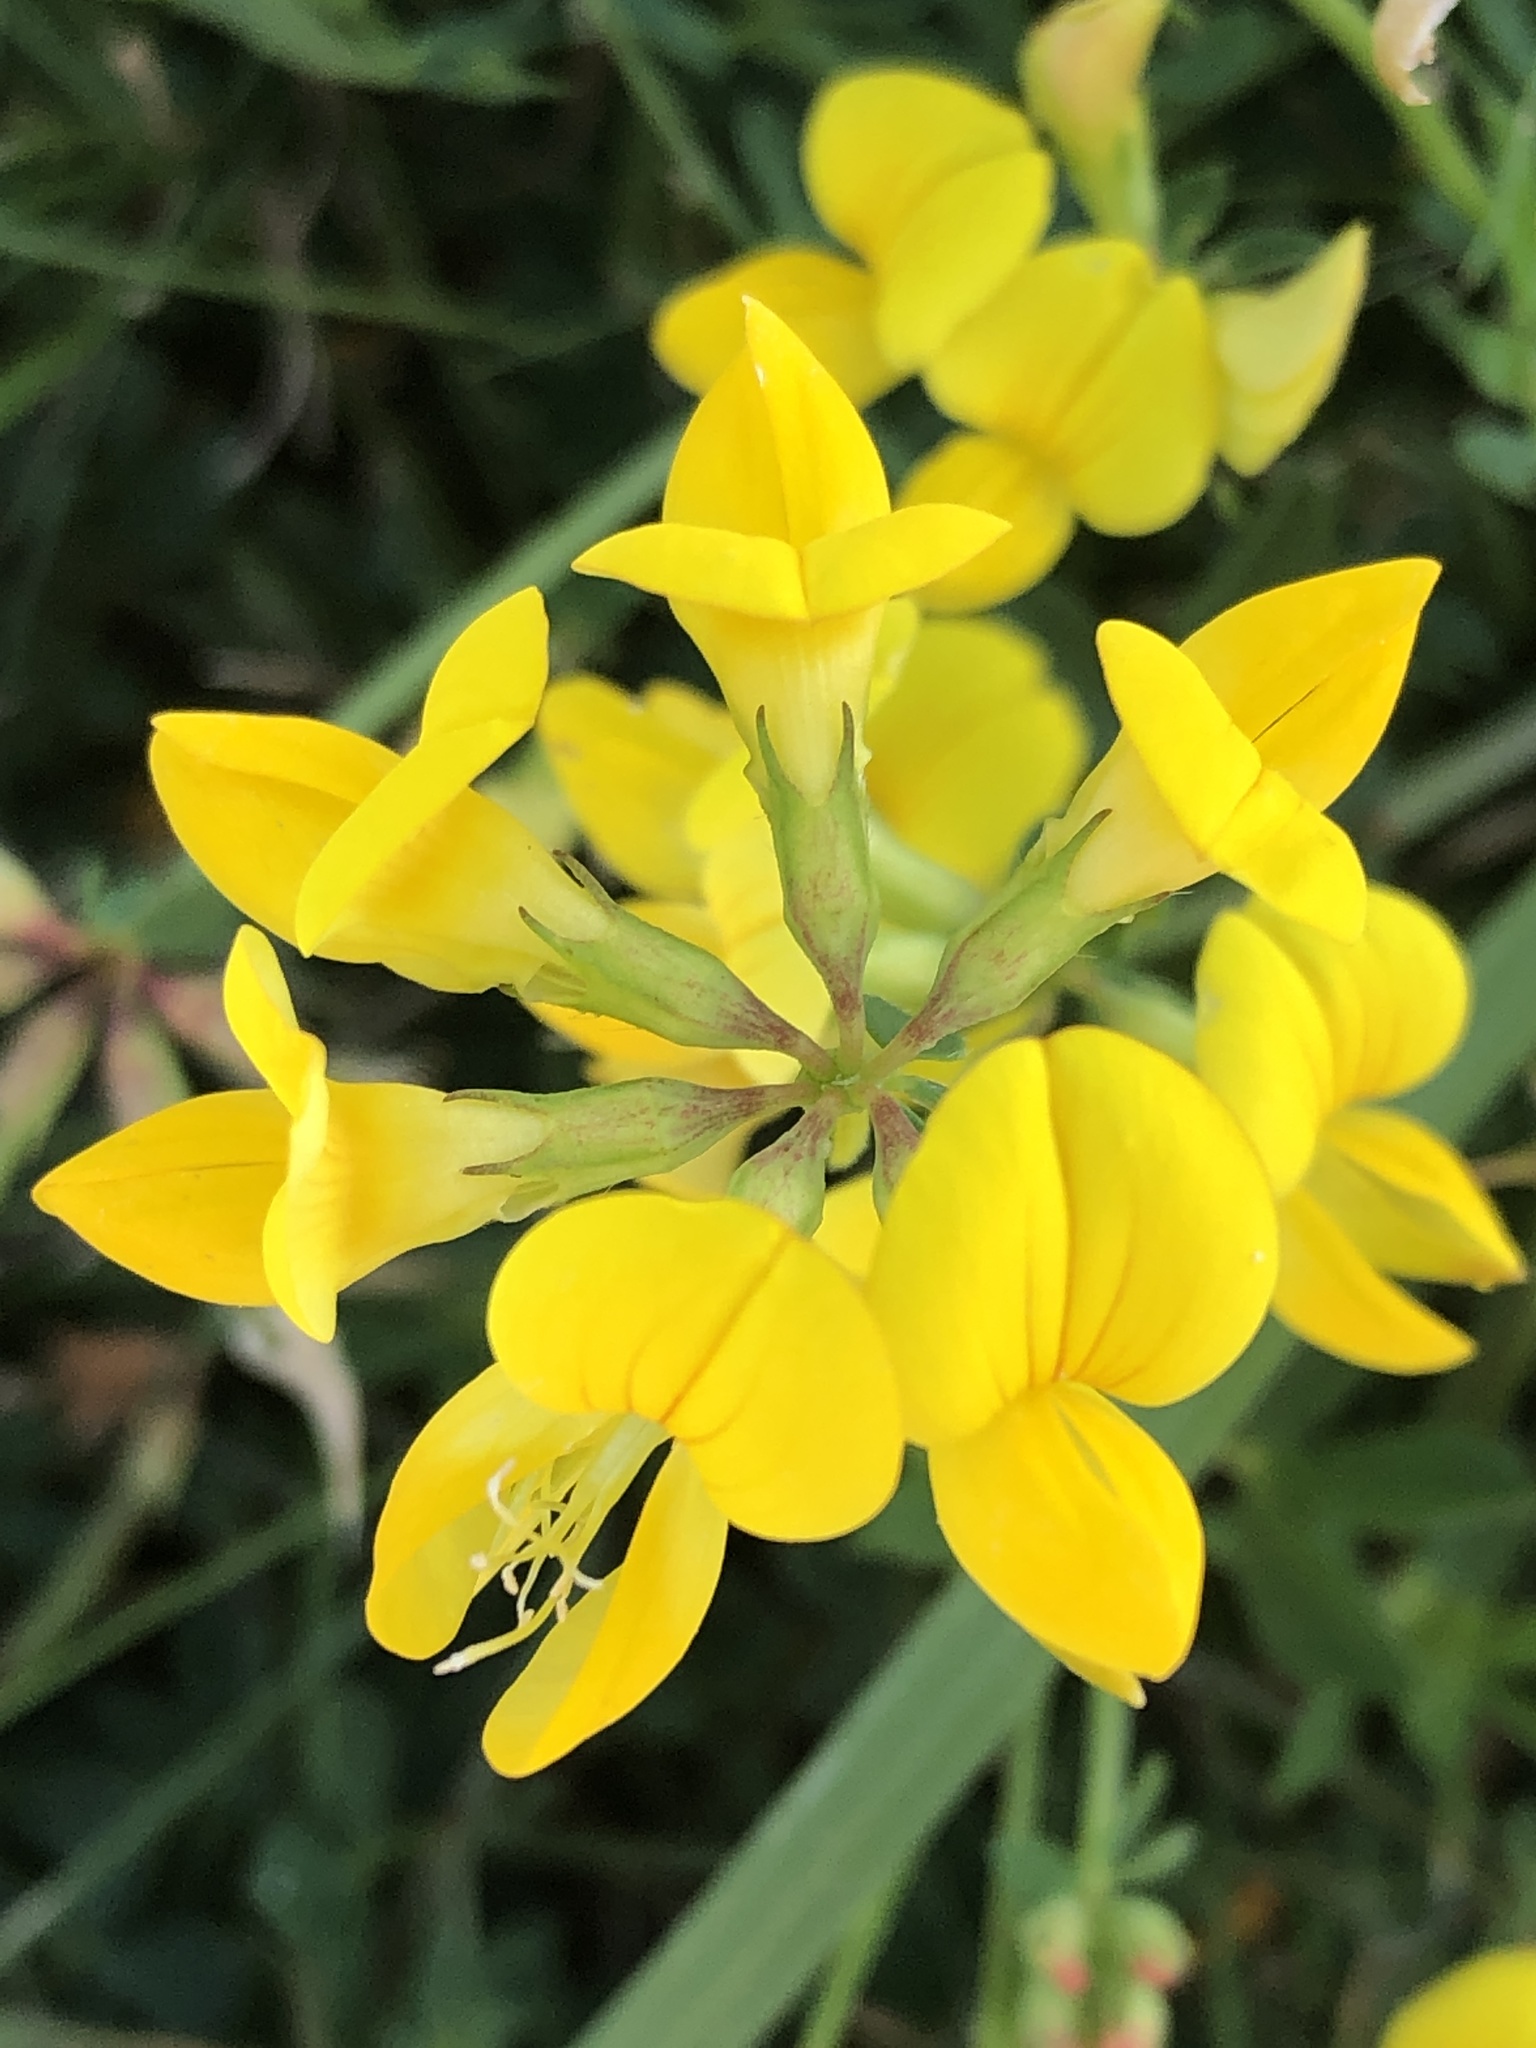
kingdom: Plantae
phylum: Tracheophyta
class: Magnoliopsida
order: Fabales
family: Fabaceae
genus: Lotus
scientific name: Lotus corniculatus
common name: Common bird's-foot-trefoil
